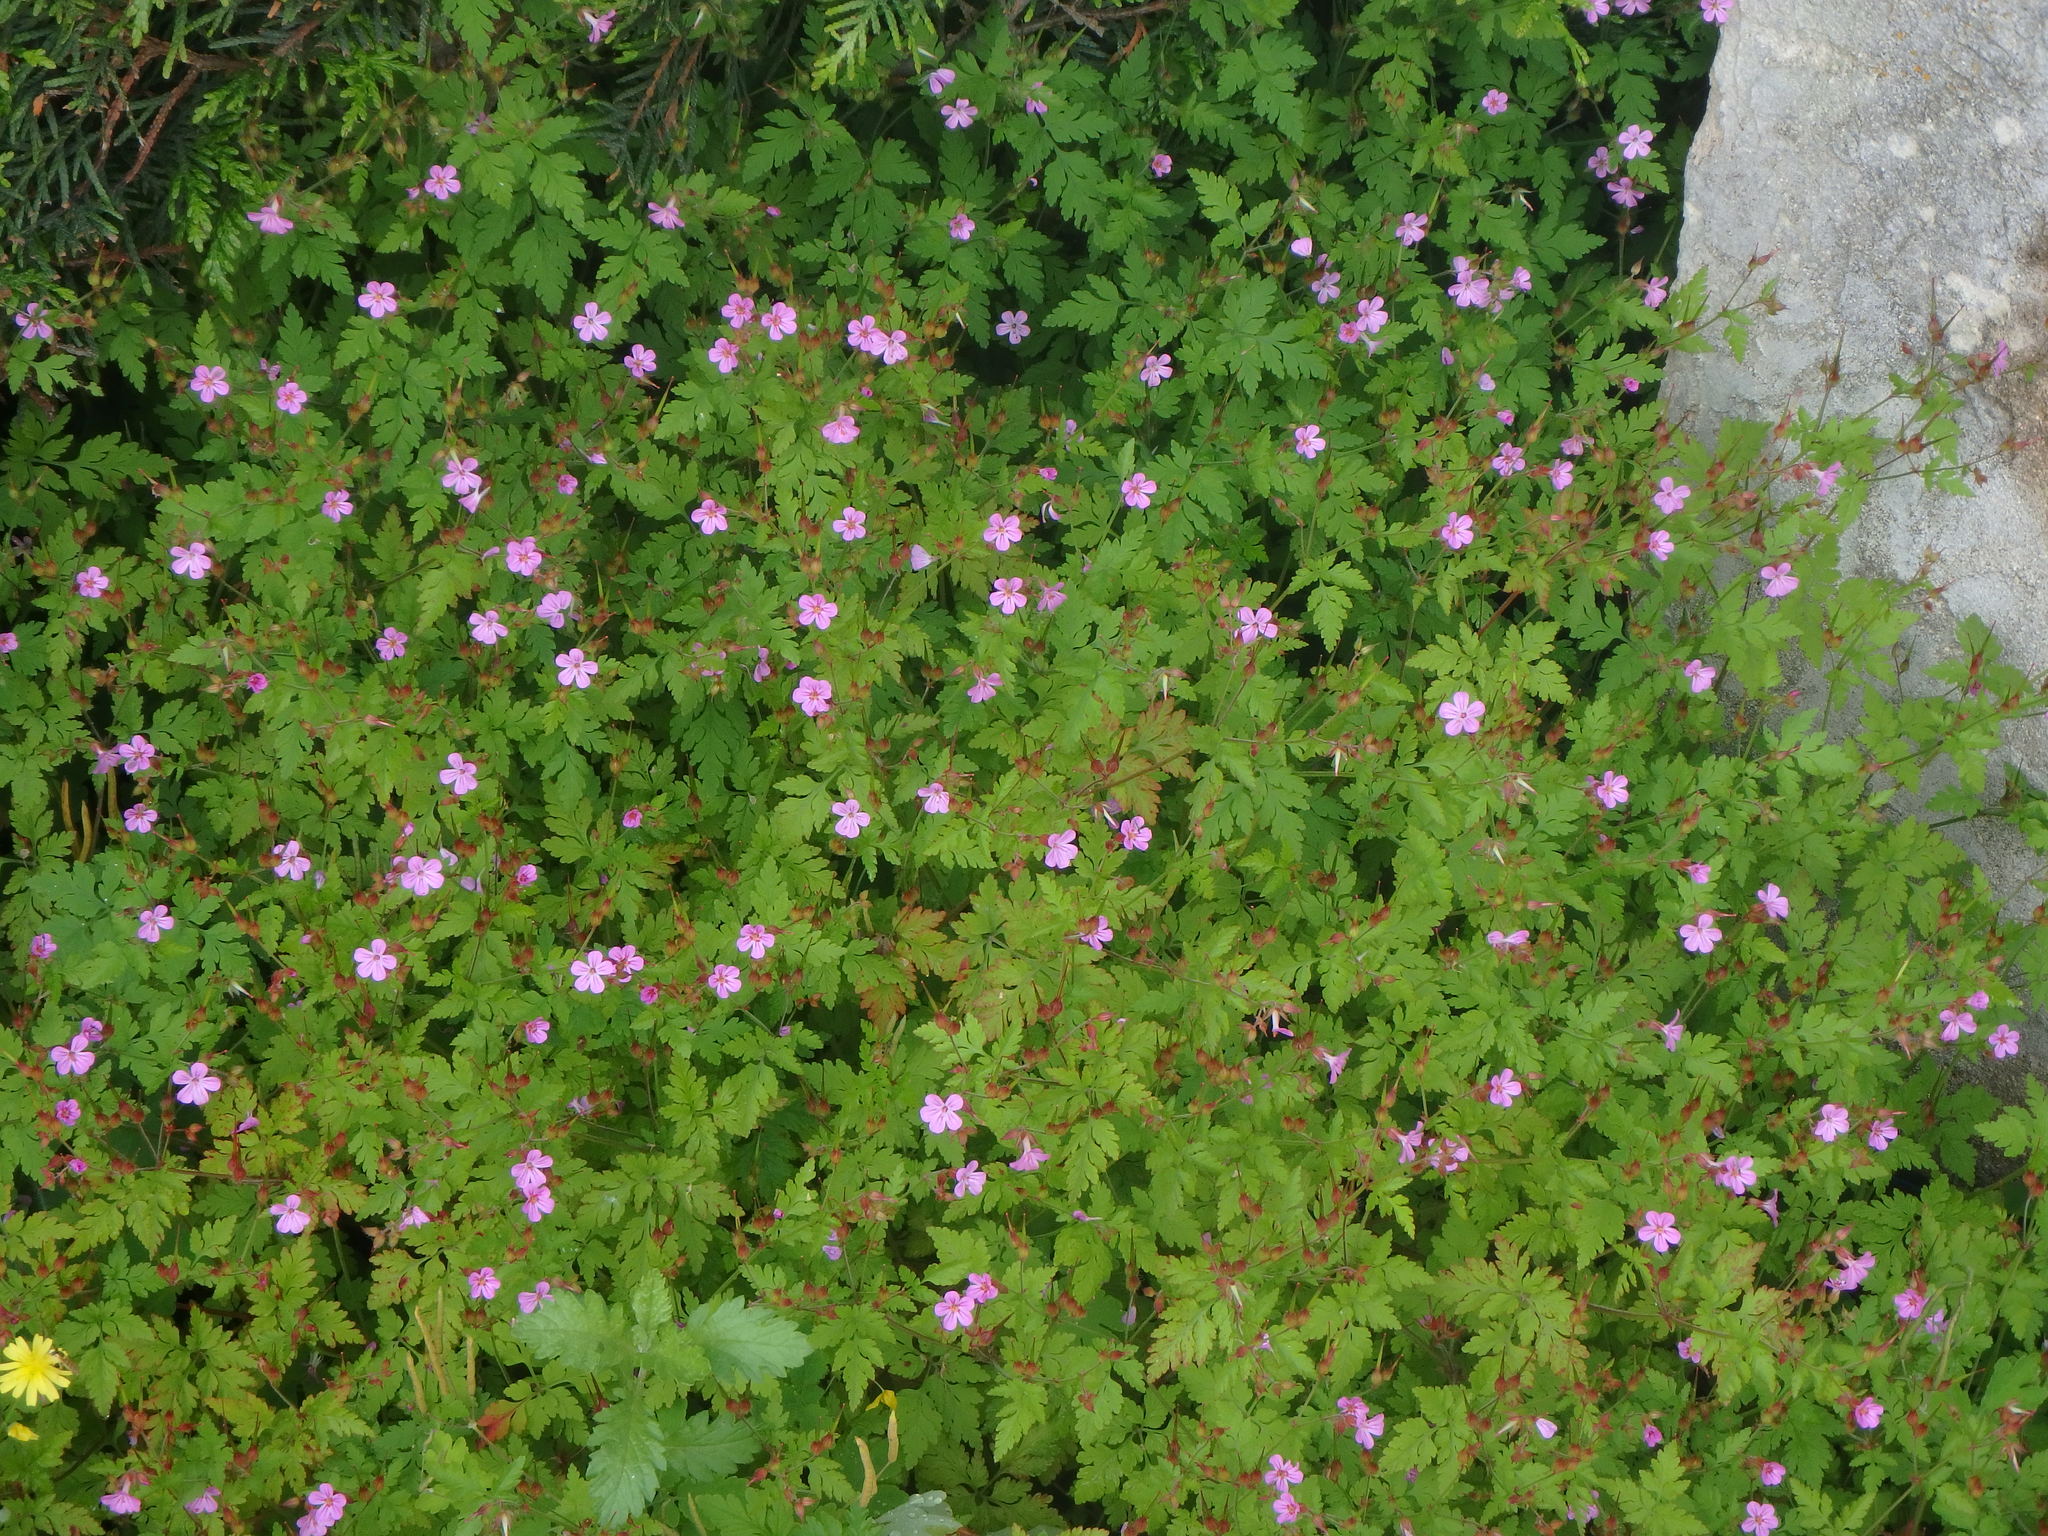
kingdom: Plantae
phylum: Tracheophyta
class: Magnoliopsida
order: Geraniales
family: Geraniaceae
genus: Geranium
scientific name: Geranium robertianum
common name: Herb-robert
